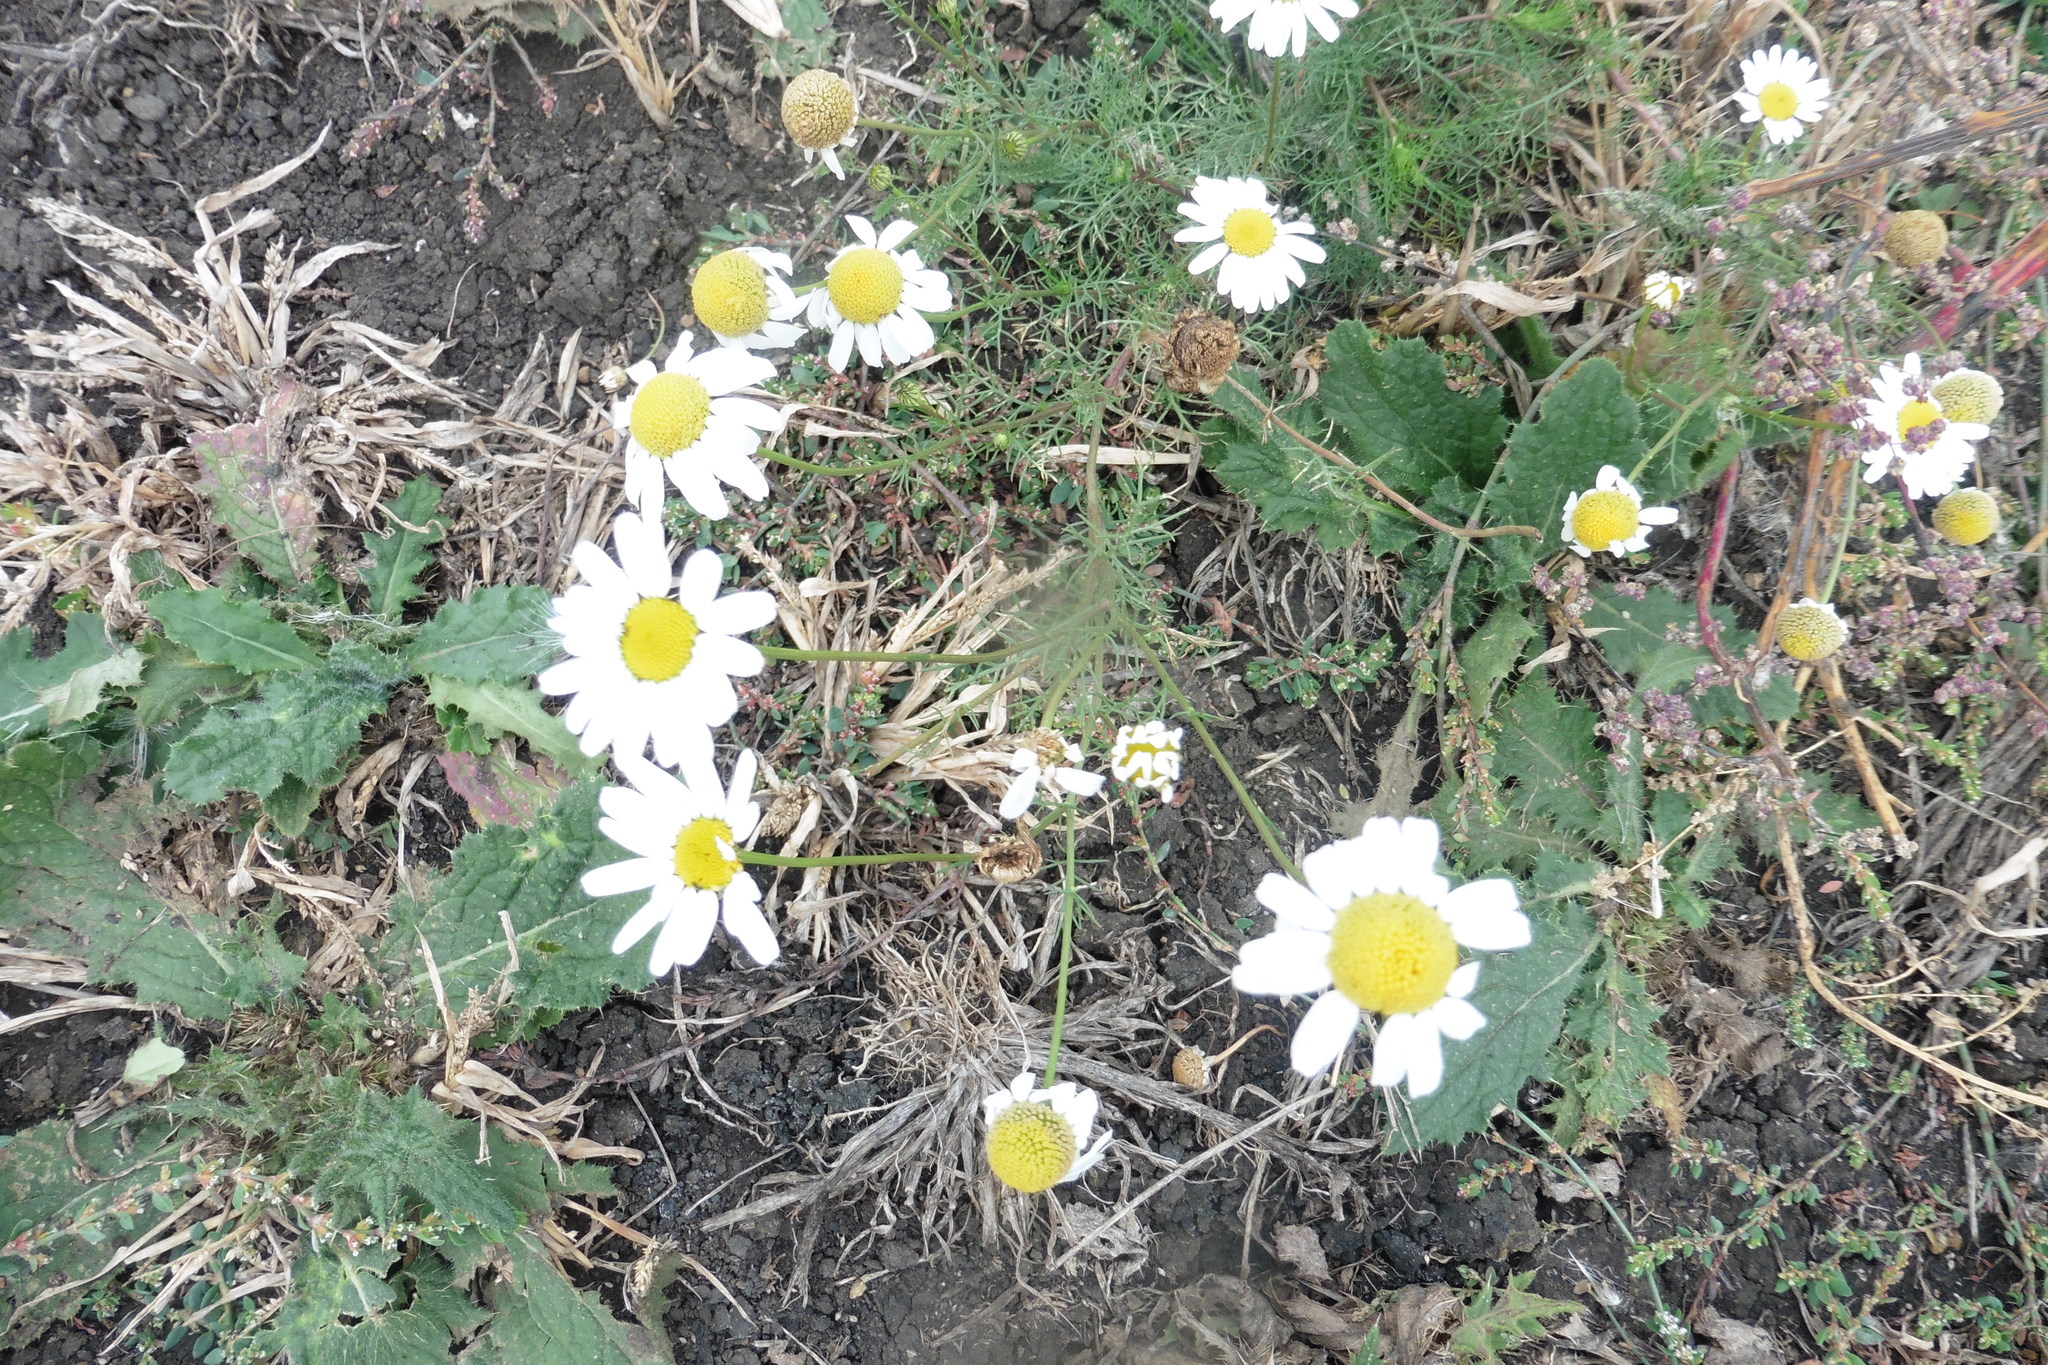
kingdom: Plantae
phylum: Tracheophyta
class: Magnoliopsida
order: Asterales
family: Asteraceae
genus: Tripleurospermum
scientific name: Tripleurospermum inodorum
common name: Scentless mayweed
